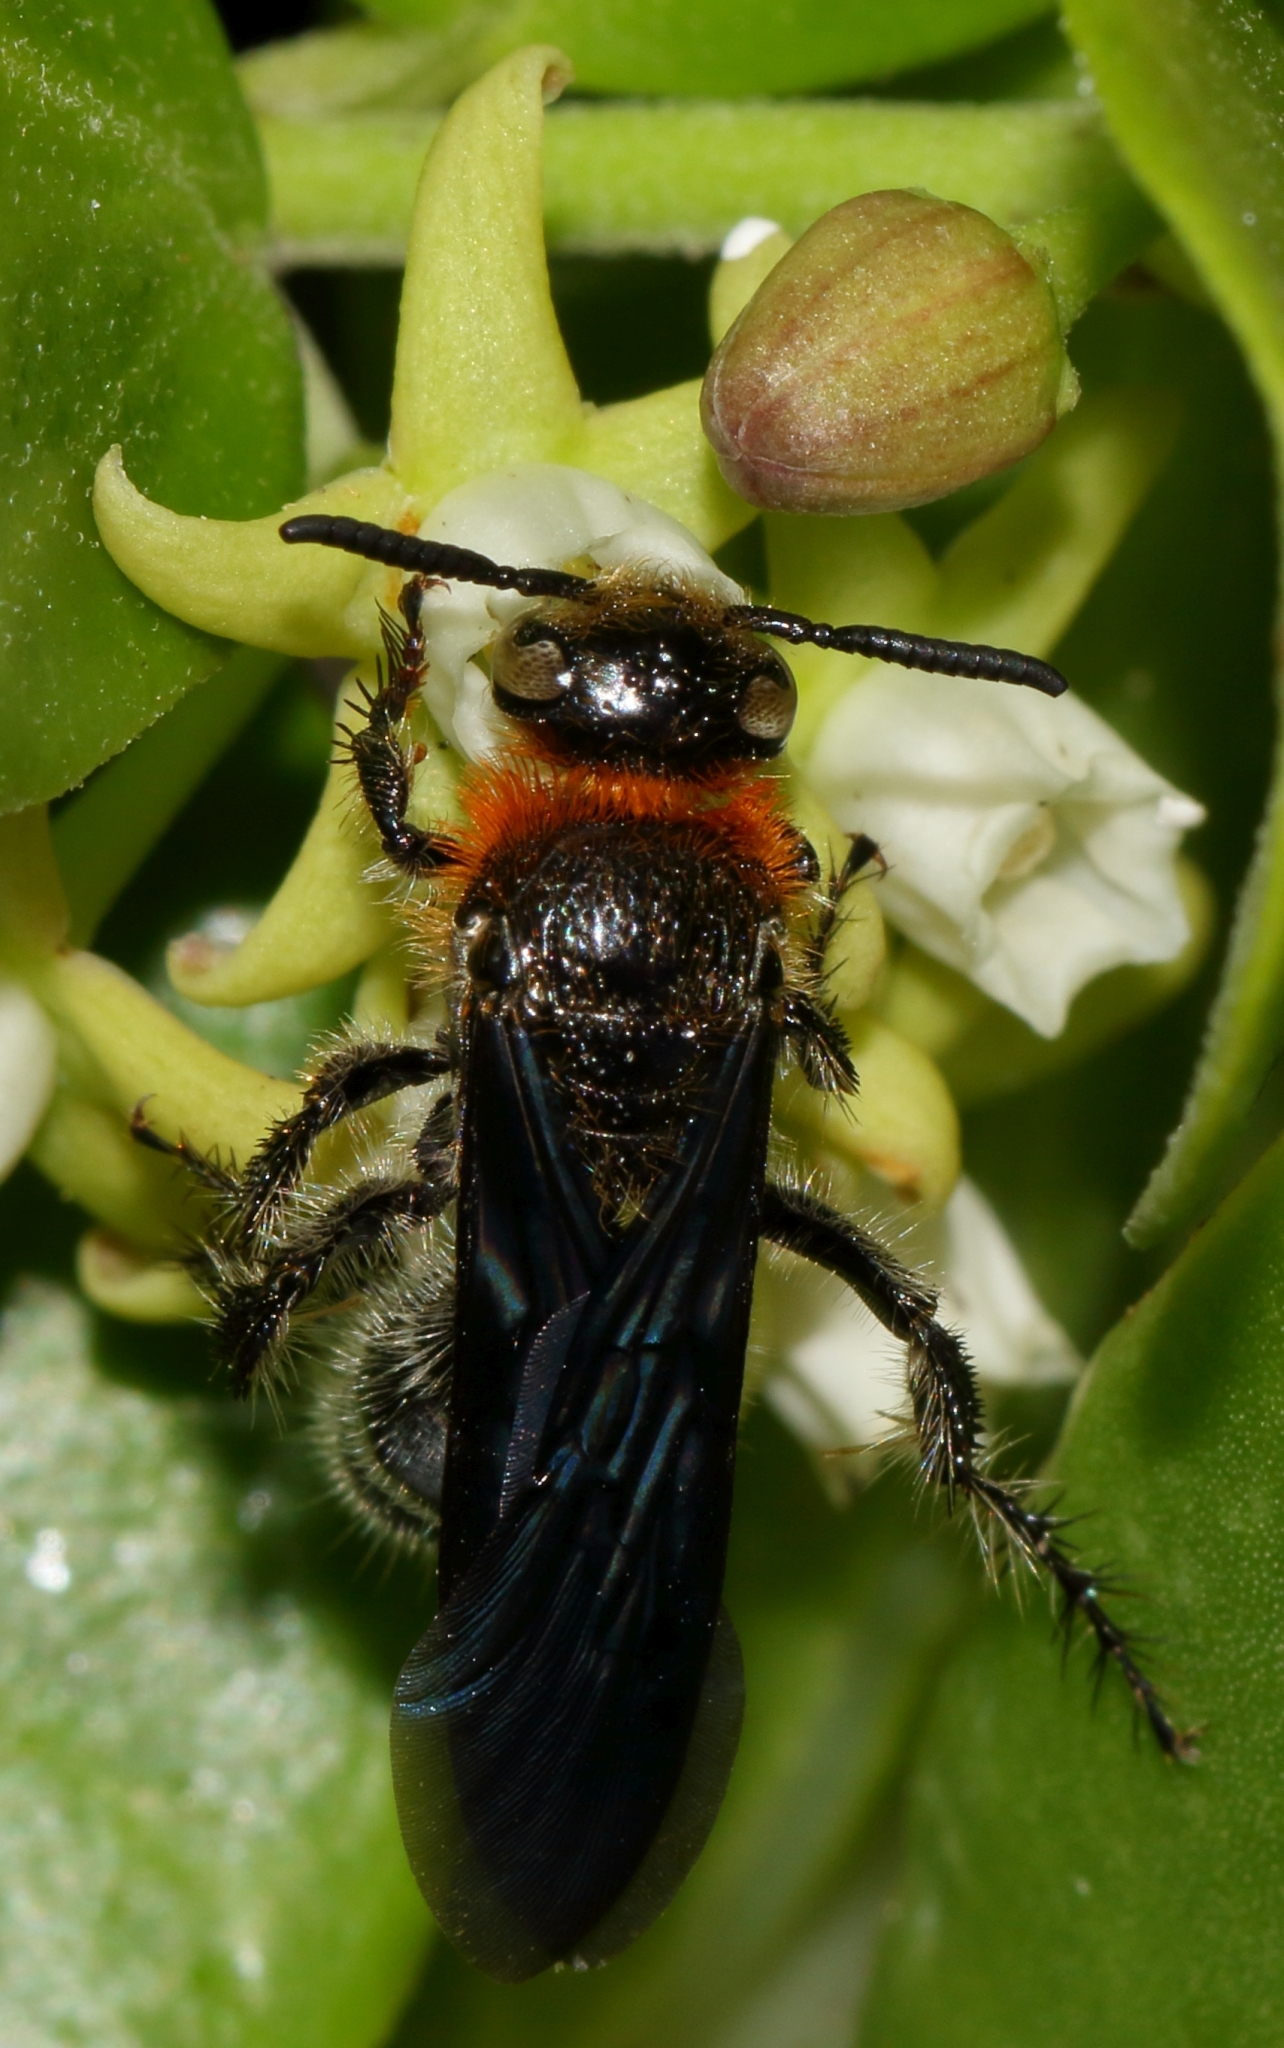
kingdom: Animalia
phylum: Arthropoda
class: Insecta
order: Hymenoptera
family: Scoliidae
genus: Cathimeris
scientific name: Cathimeris
